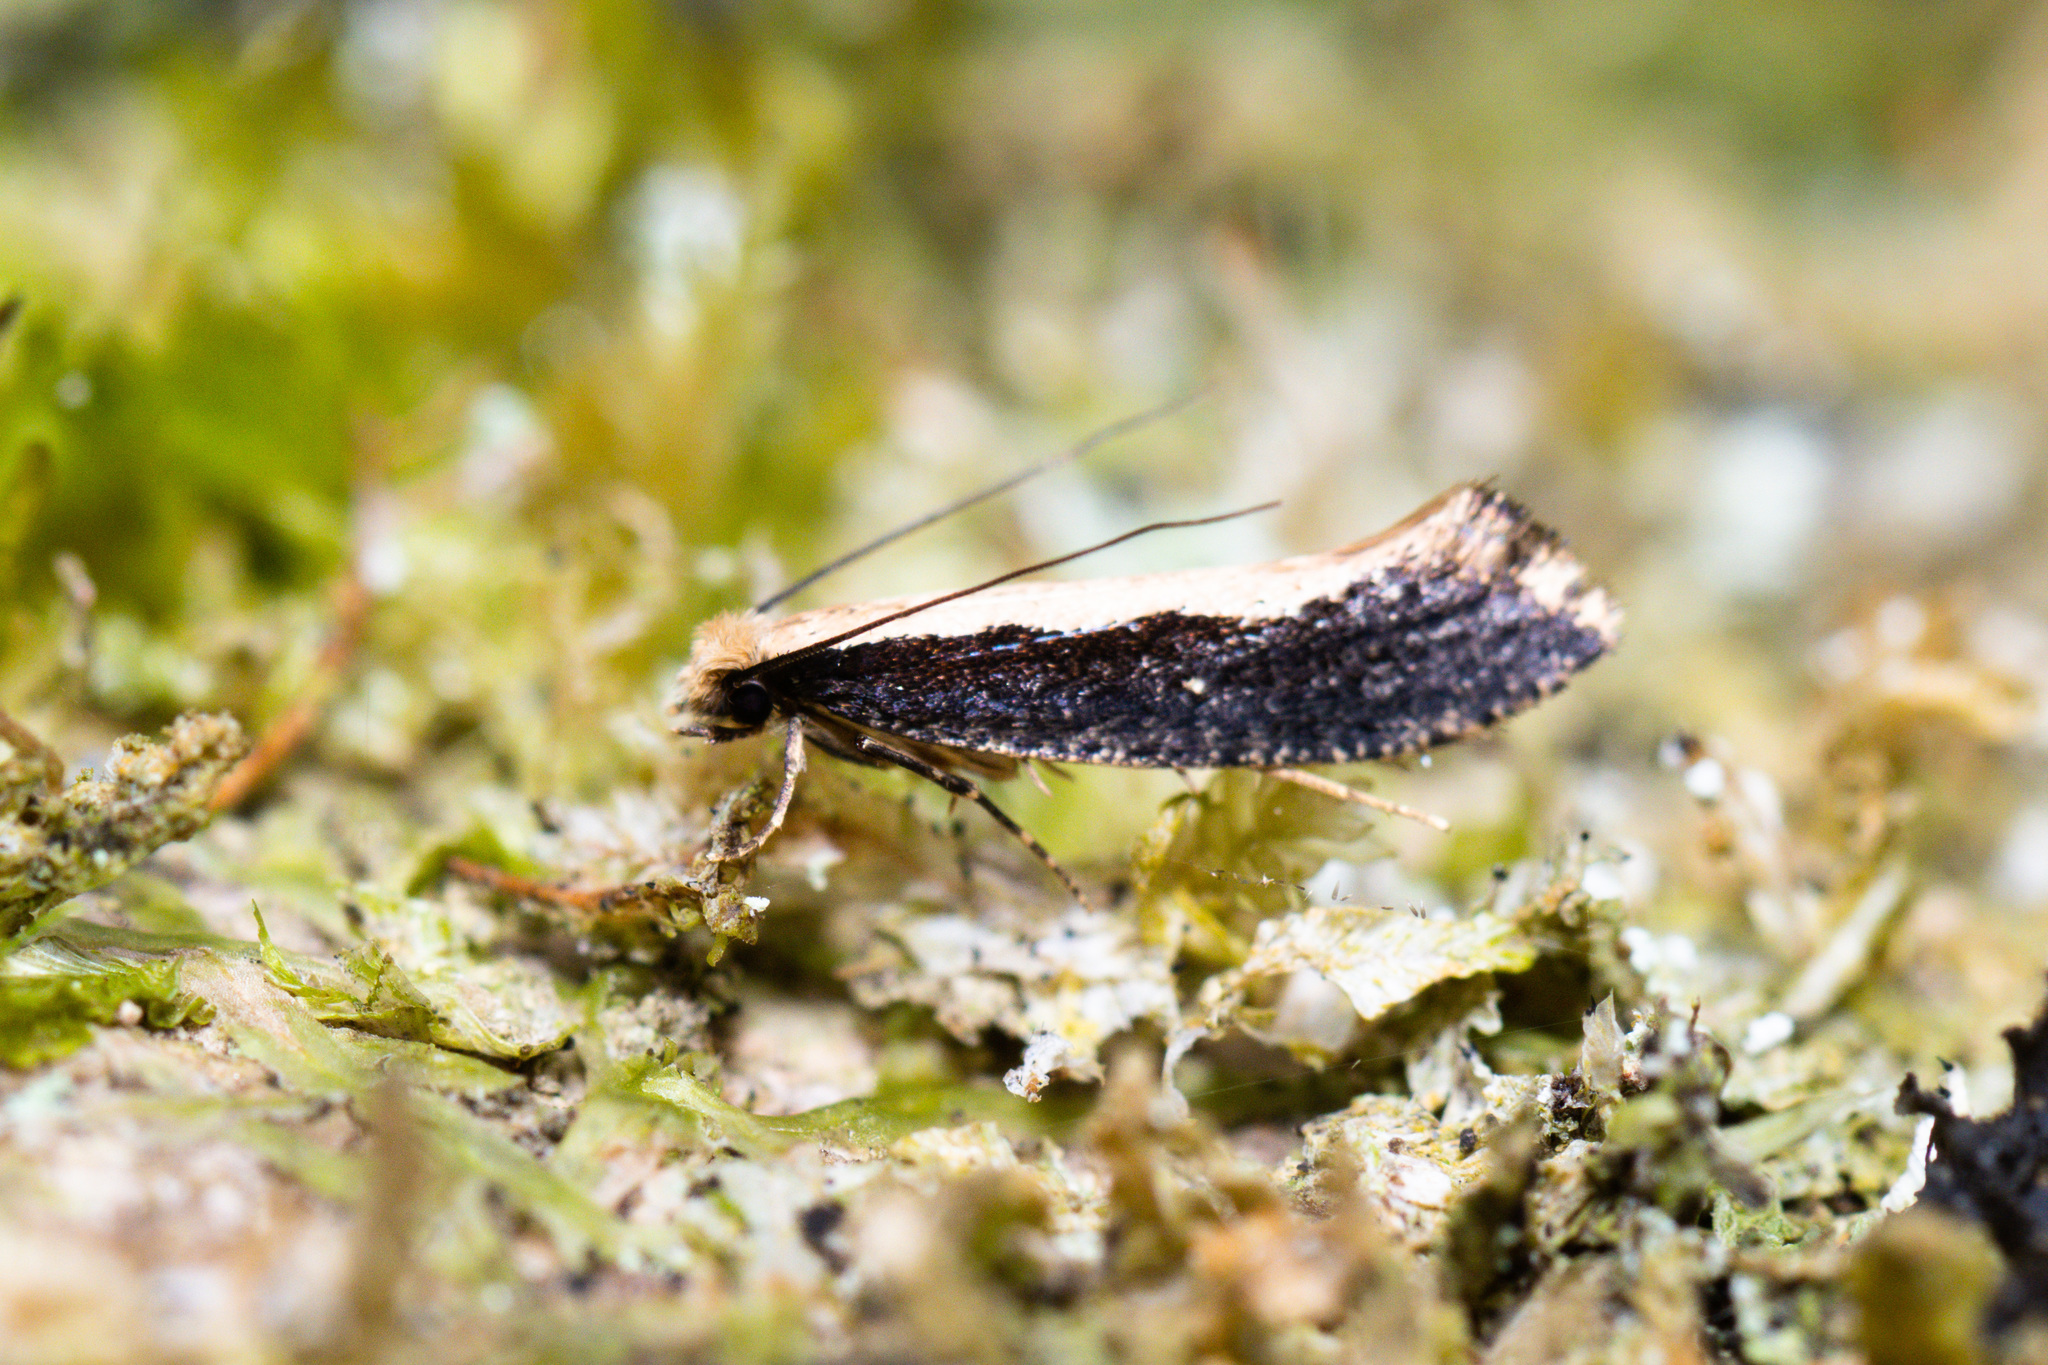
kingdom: Animalia
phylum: Arthropoda
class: Insecta
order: Lepidoptera
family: Tineidae
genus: Monopis
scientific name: Monopis dimorphella
